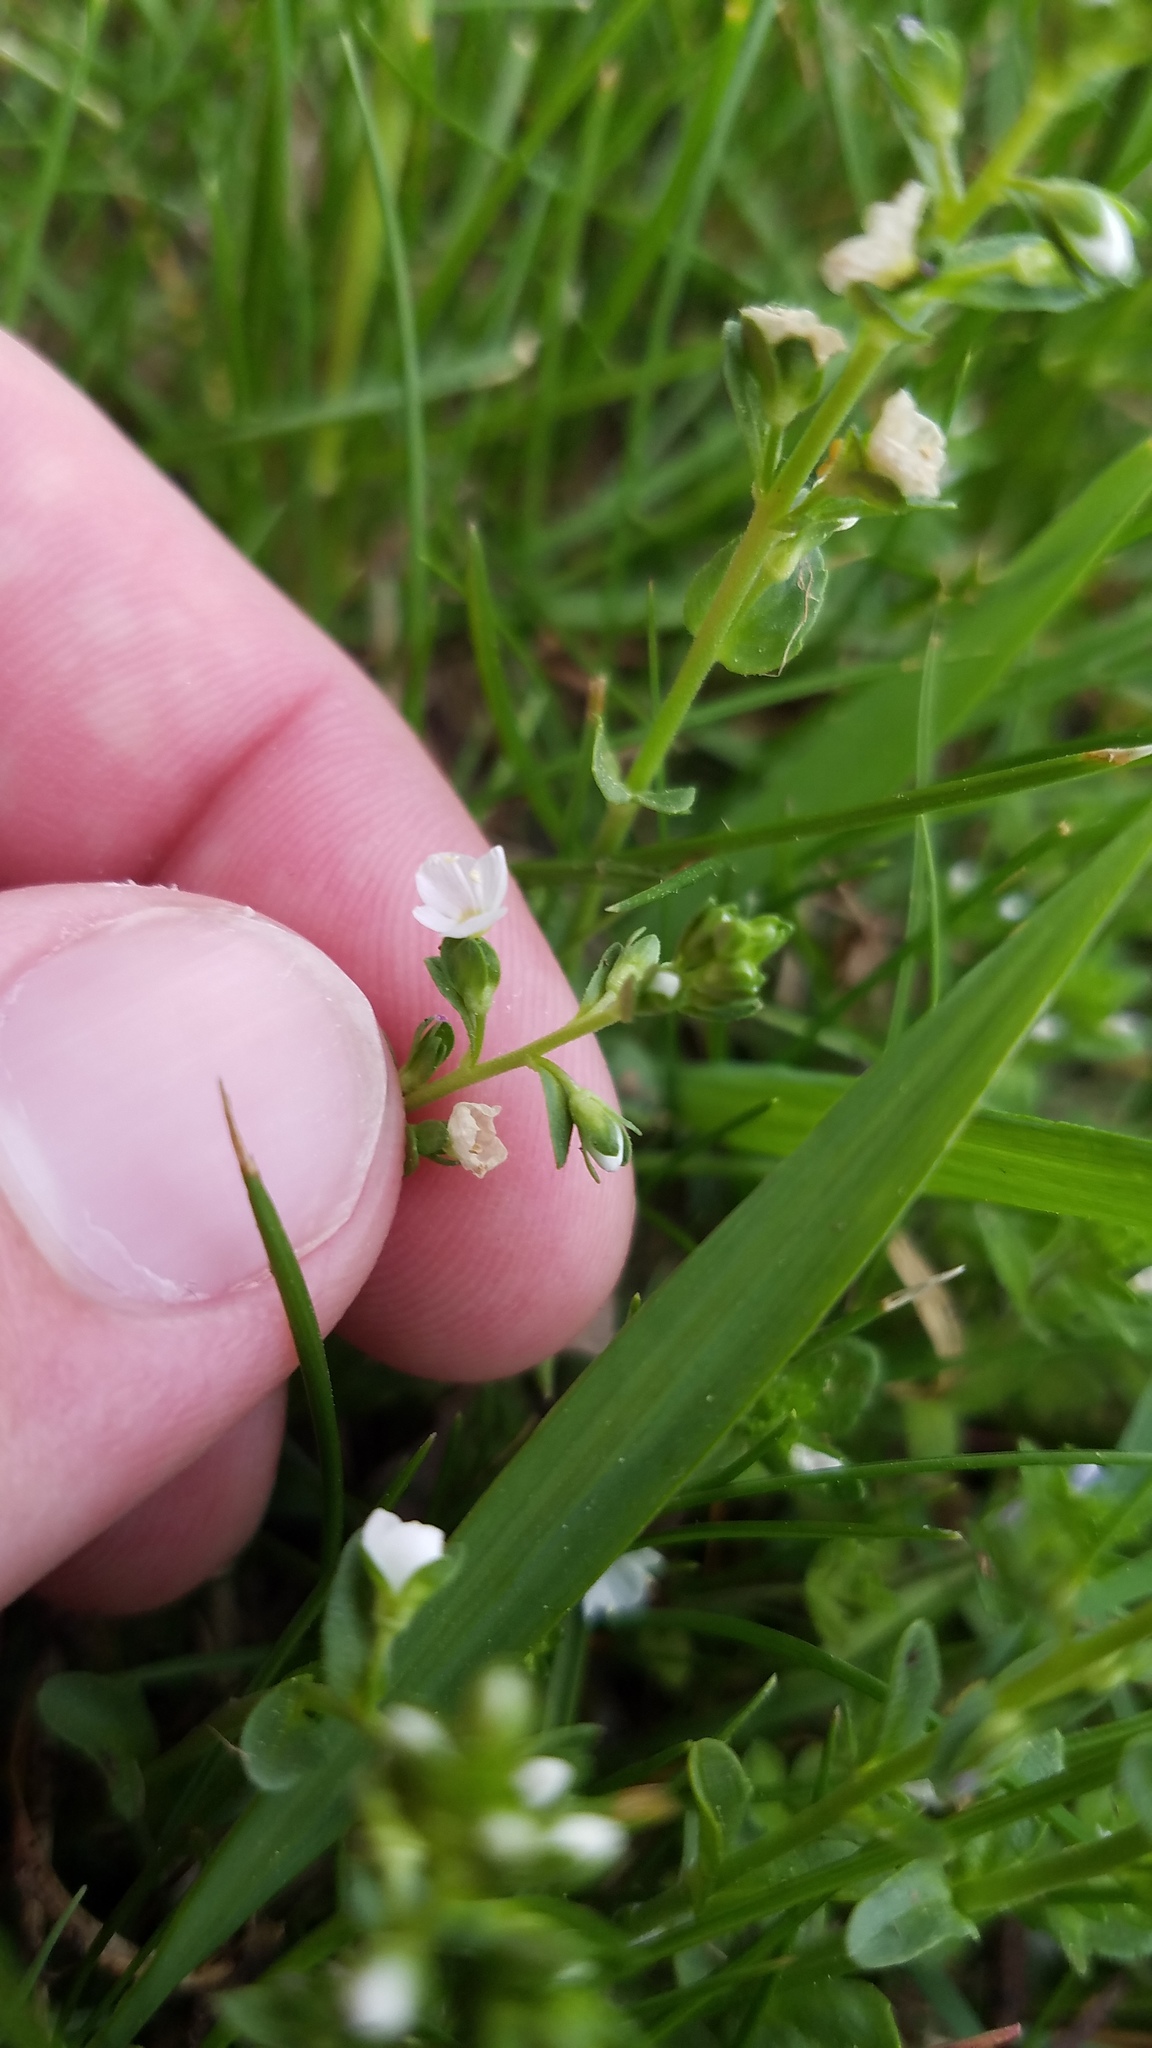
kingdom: Plantae
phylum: Tracheophyta
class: Magnoliopsida
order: Lamiales
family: Plantaginaceae
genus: Veronica
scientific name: Veronica serpyllifolia
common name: Thyme-leaved speedwell
